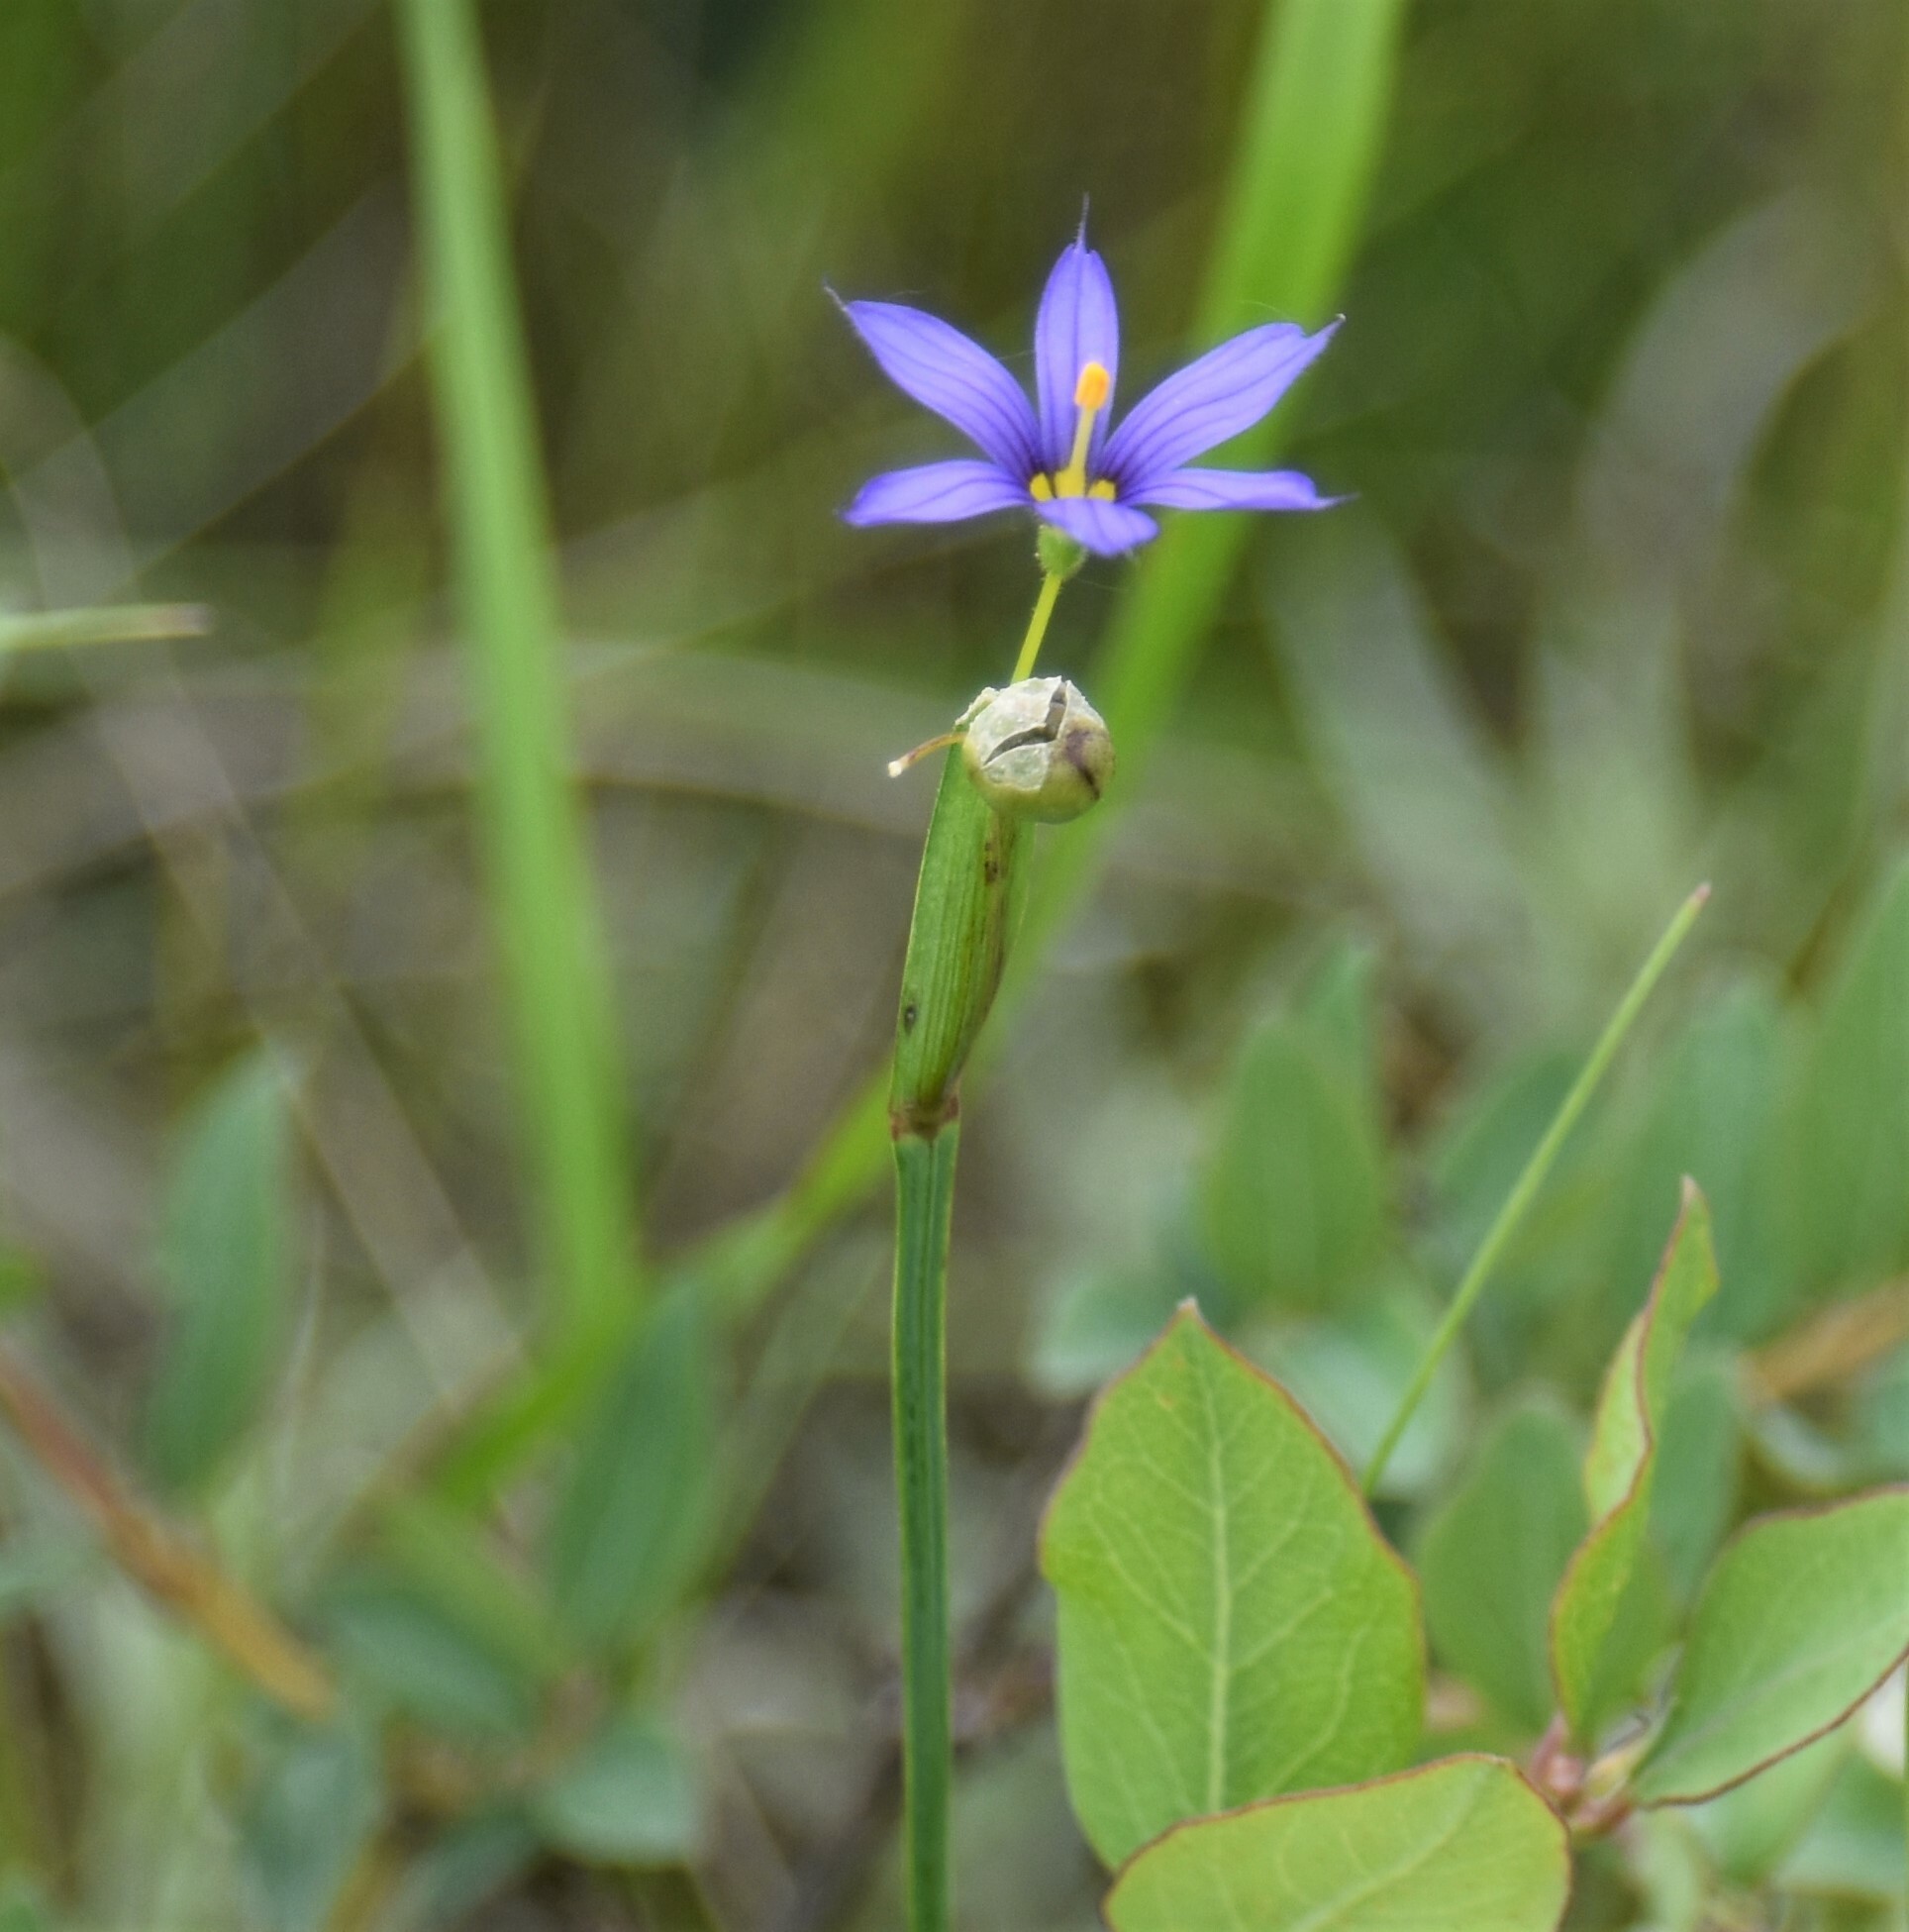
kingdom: Plantae
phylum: Tracheophyta
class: Liliopsida
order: Asparagales
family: Iridaceae
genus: Sisyrinchium
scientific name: Sisyrinchium montanum
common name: American blue-eyed-grass
